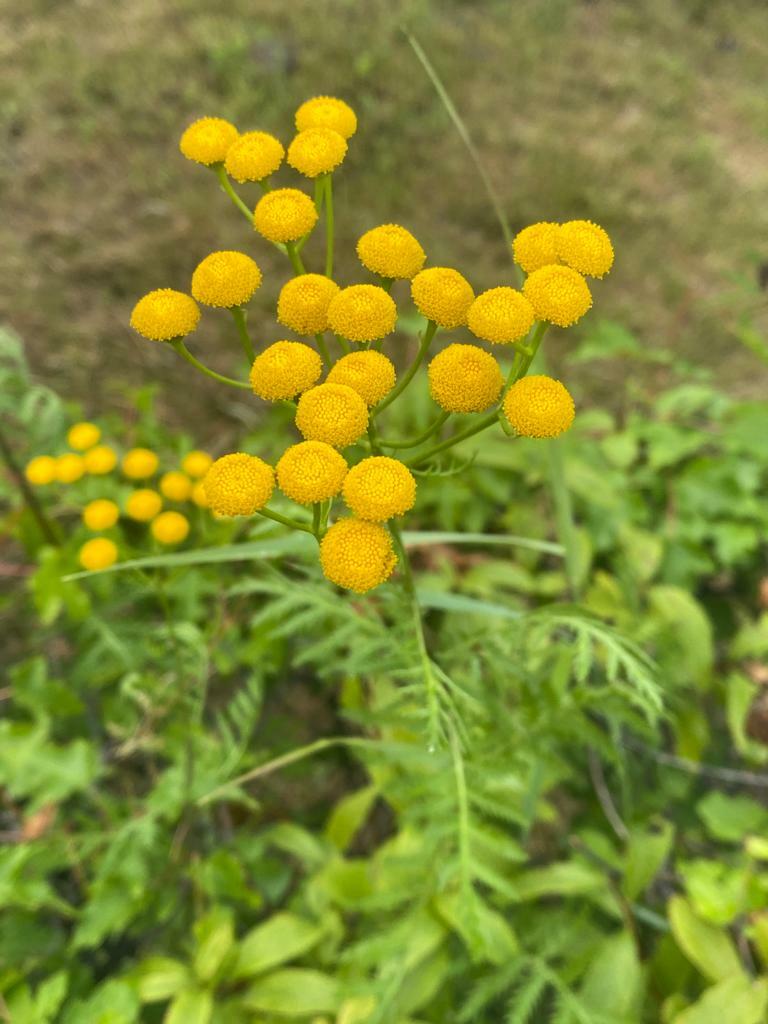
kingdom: Plantae
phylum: Tracheophyta
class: Magnoliopsida
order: Asterales
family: Asteraceae
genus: Tanacetum
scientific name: Tanacetum vulgare
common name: Common tansy
